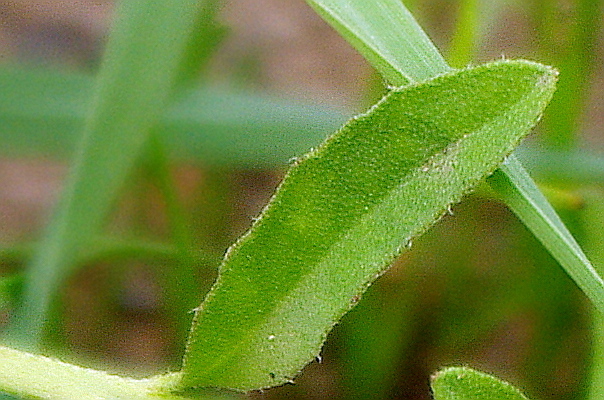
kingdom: Plantae
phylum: Tracheophyta
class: Magnoliopsida
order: Brassicales
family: Brassicaceae
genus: Berteroa
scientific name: Berteroa incana
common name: Hoary alison
